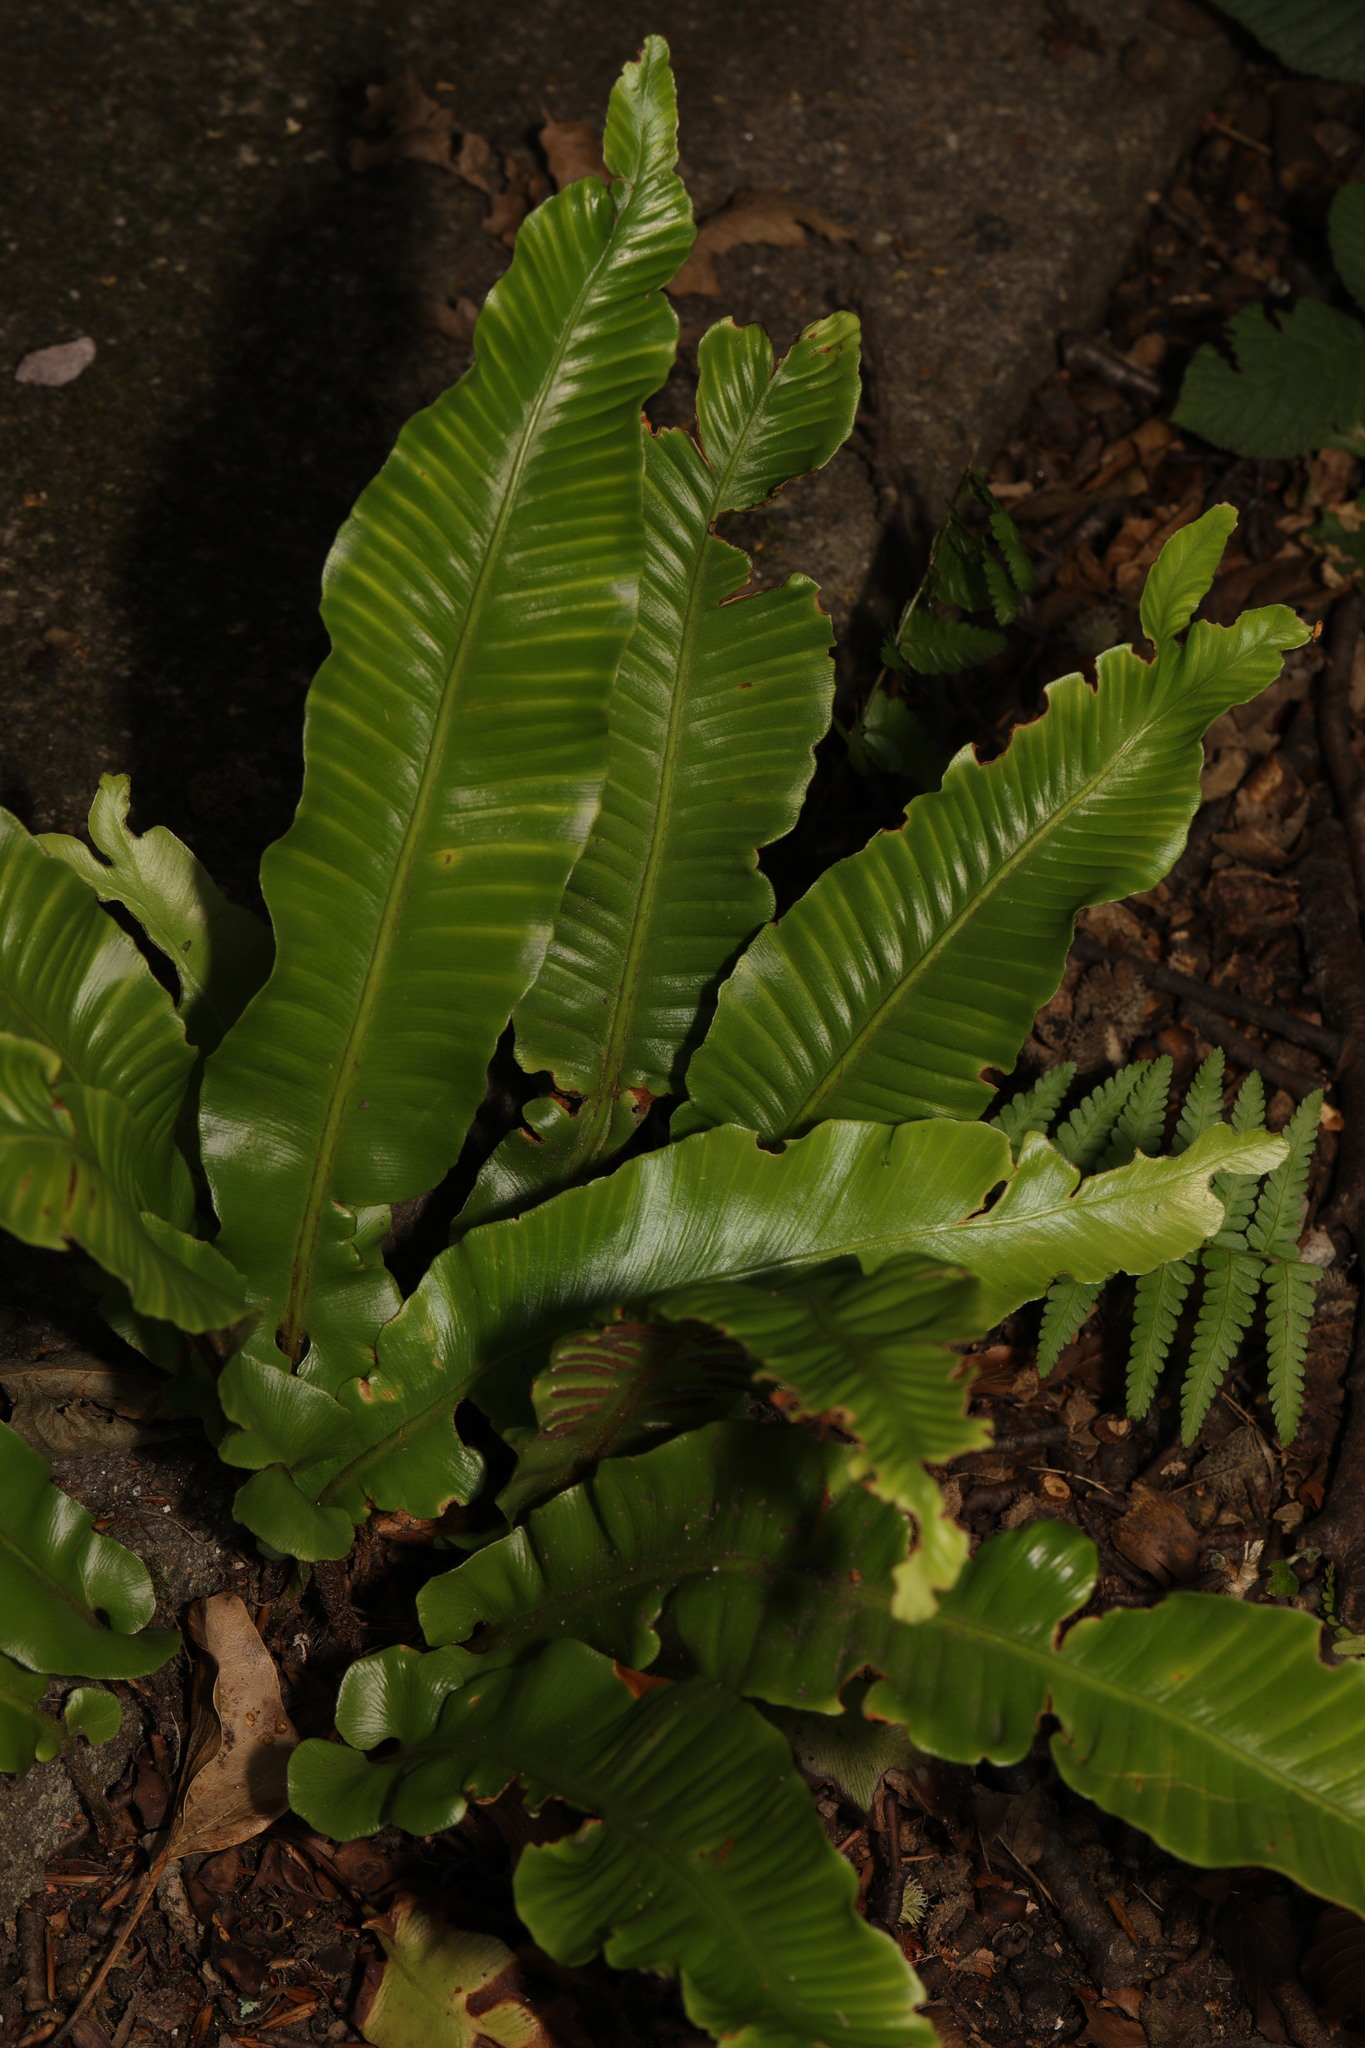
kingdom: Plantae
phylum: Tracheophyta
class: Polypodiopsida
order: Polypodiales
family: Aspleniaceae
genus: Asplenium
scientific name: Asplenium scolopendrium
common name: Hart's-tongue fern
